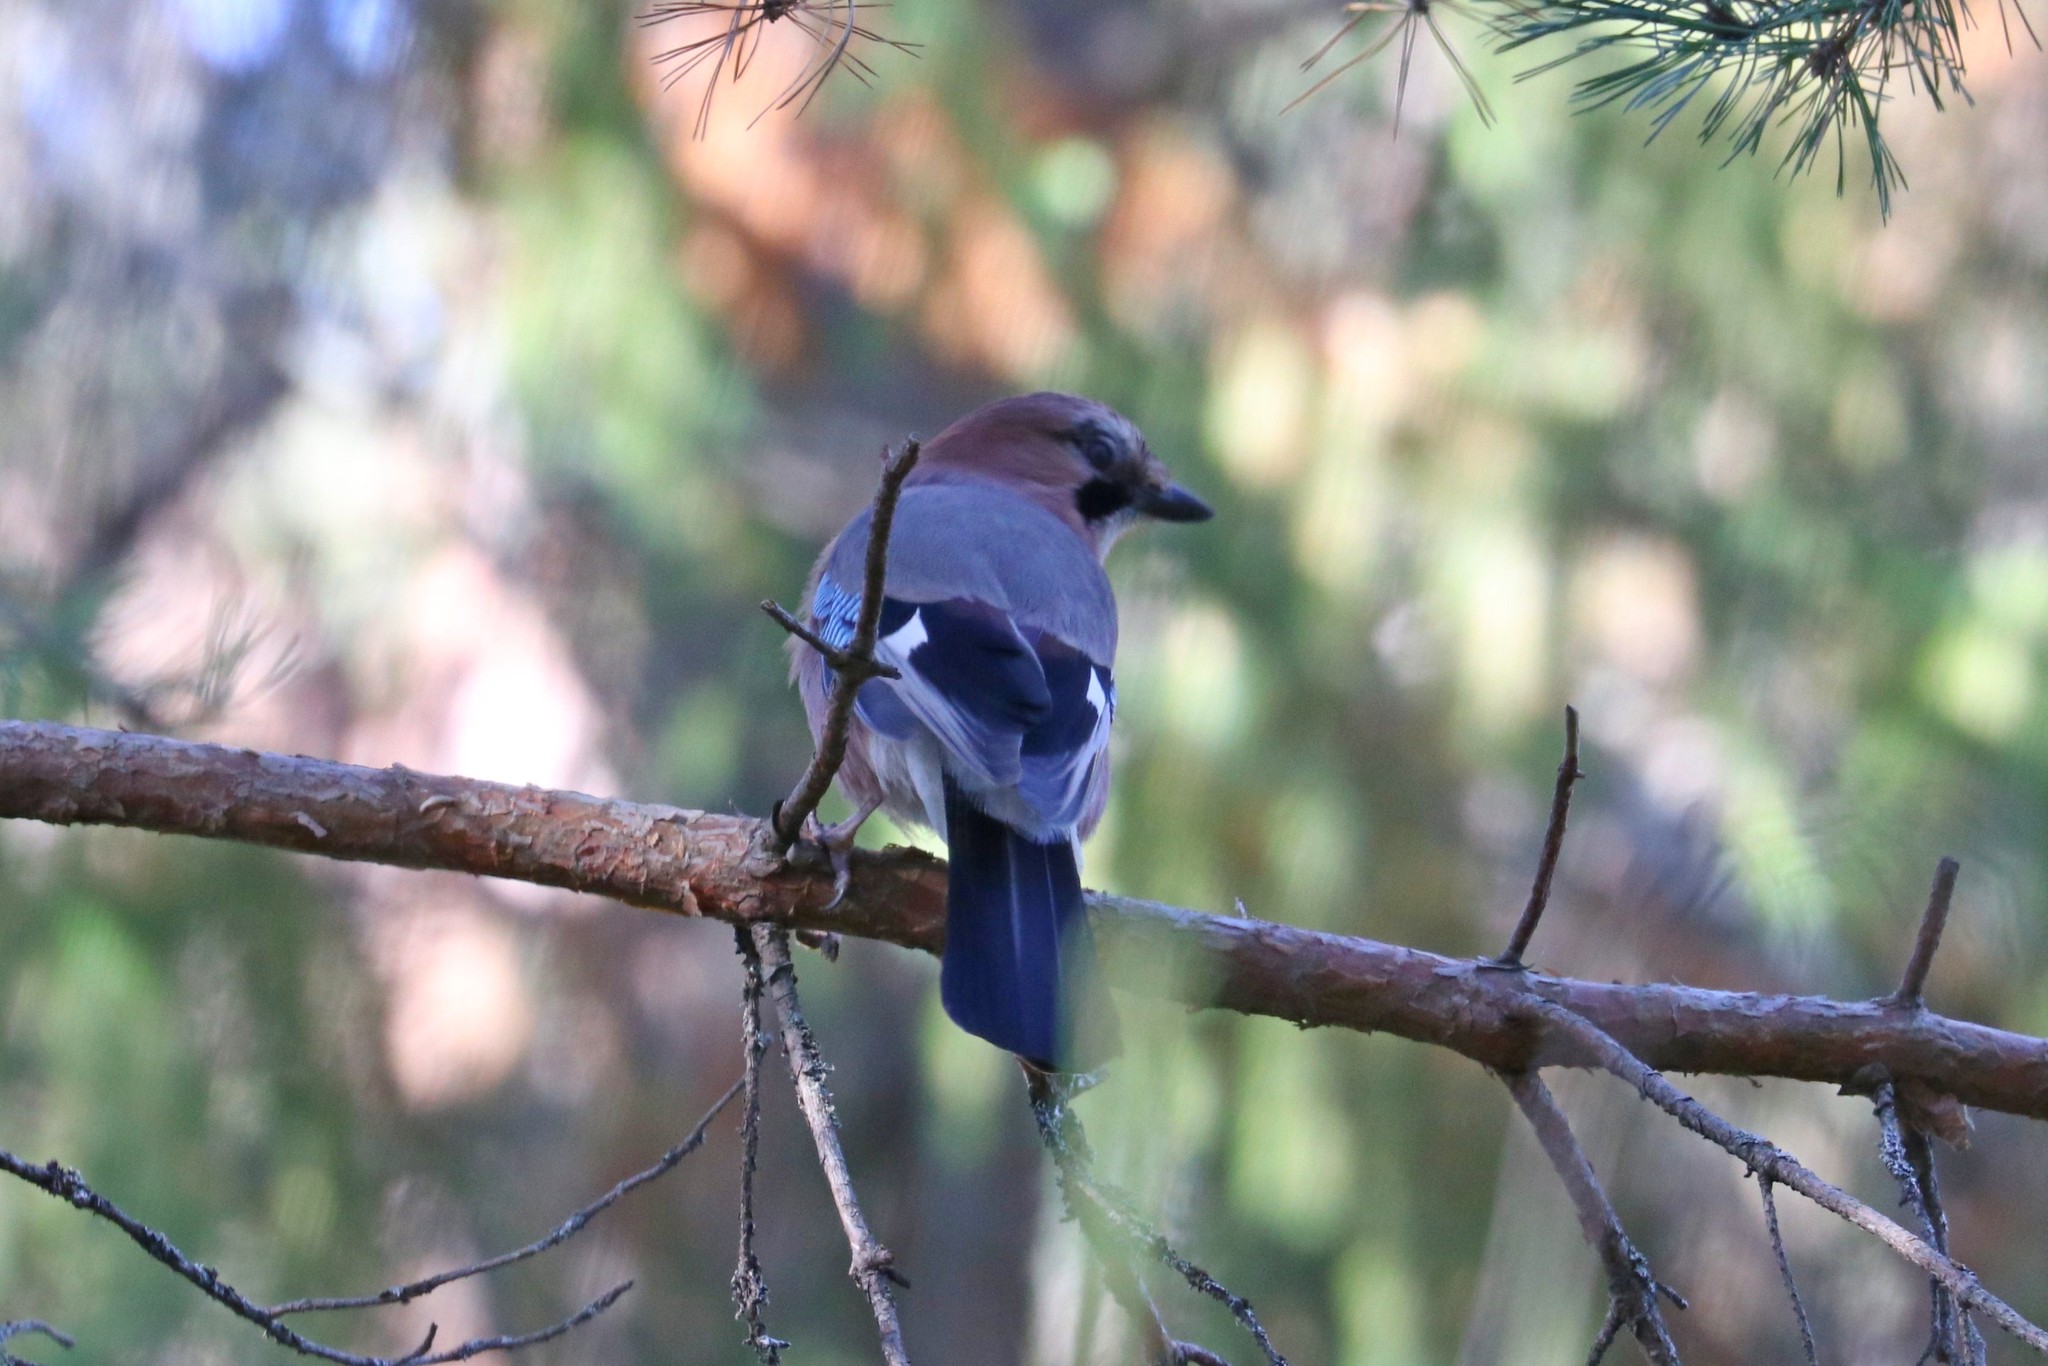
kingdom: Animalia
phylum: Chordata
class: Aves
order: Passeriformes
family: Corvidae
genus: Garrulus
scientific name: Garrulus glandarius
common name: Eurasian jay
